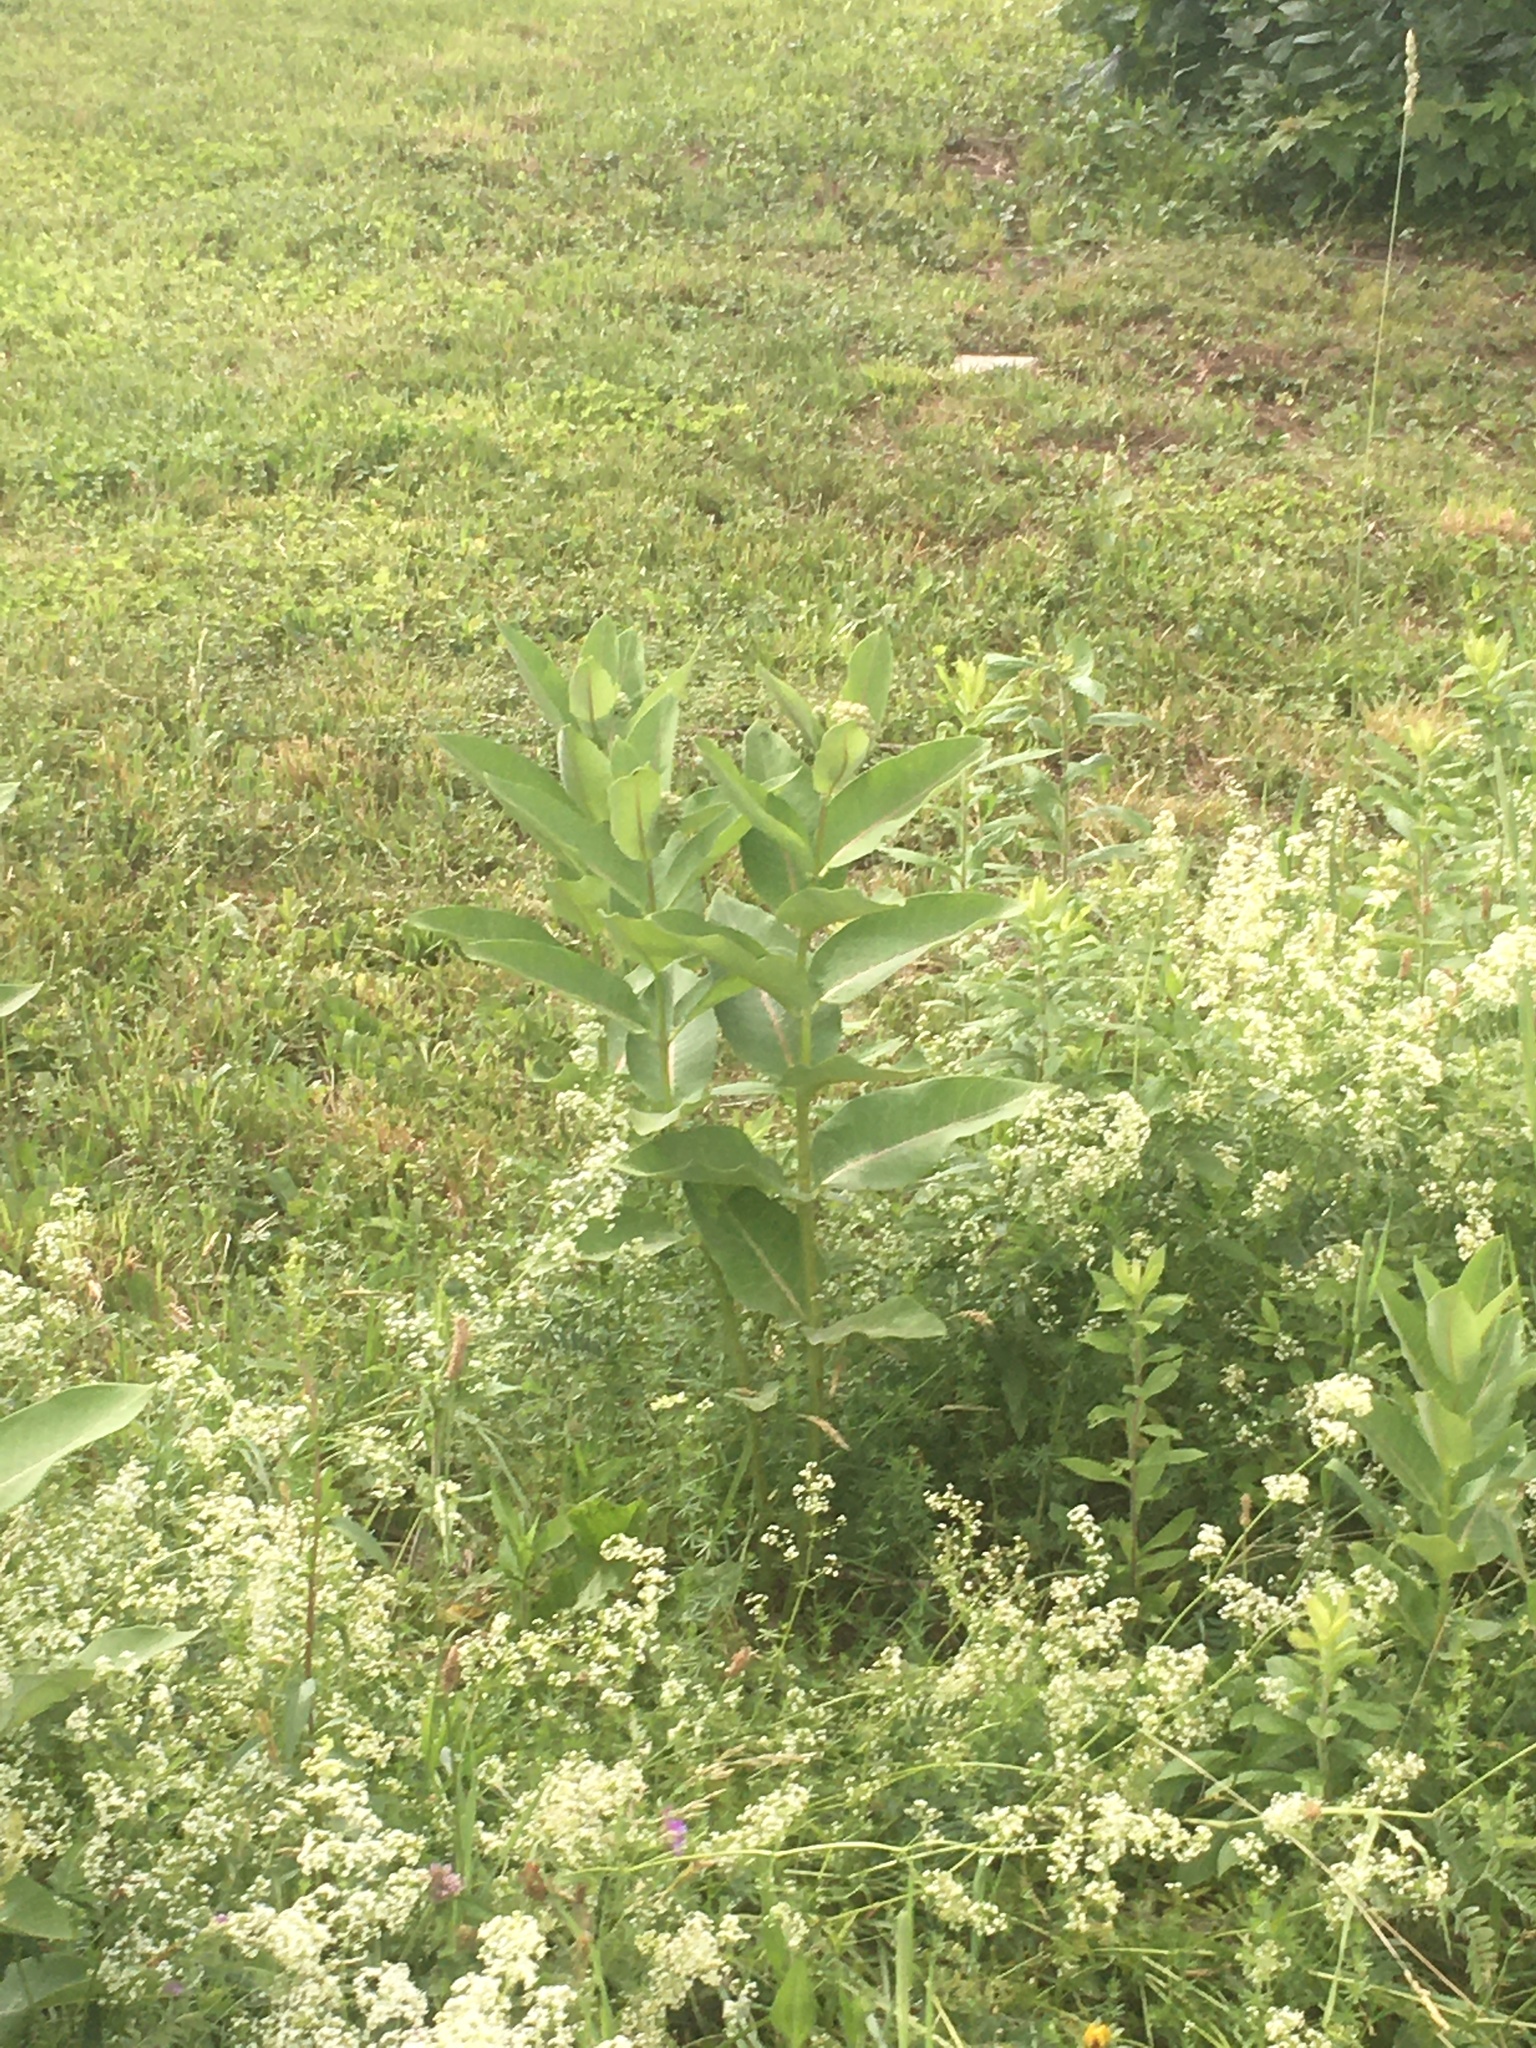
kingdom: Plantae
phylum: Tracheophyta
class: Magnoliopsida
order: Gentianales
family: Apocynaceae
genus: Asclepias
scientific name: Asclepias syriaca
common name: Common milkweed
